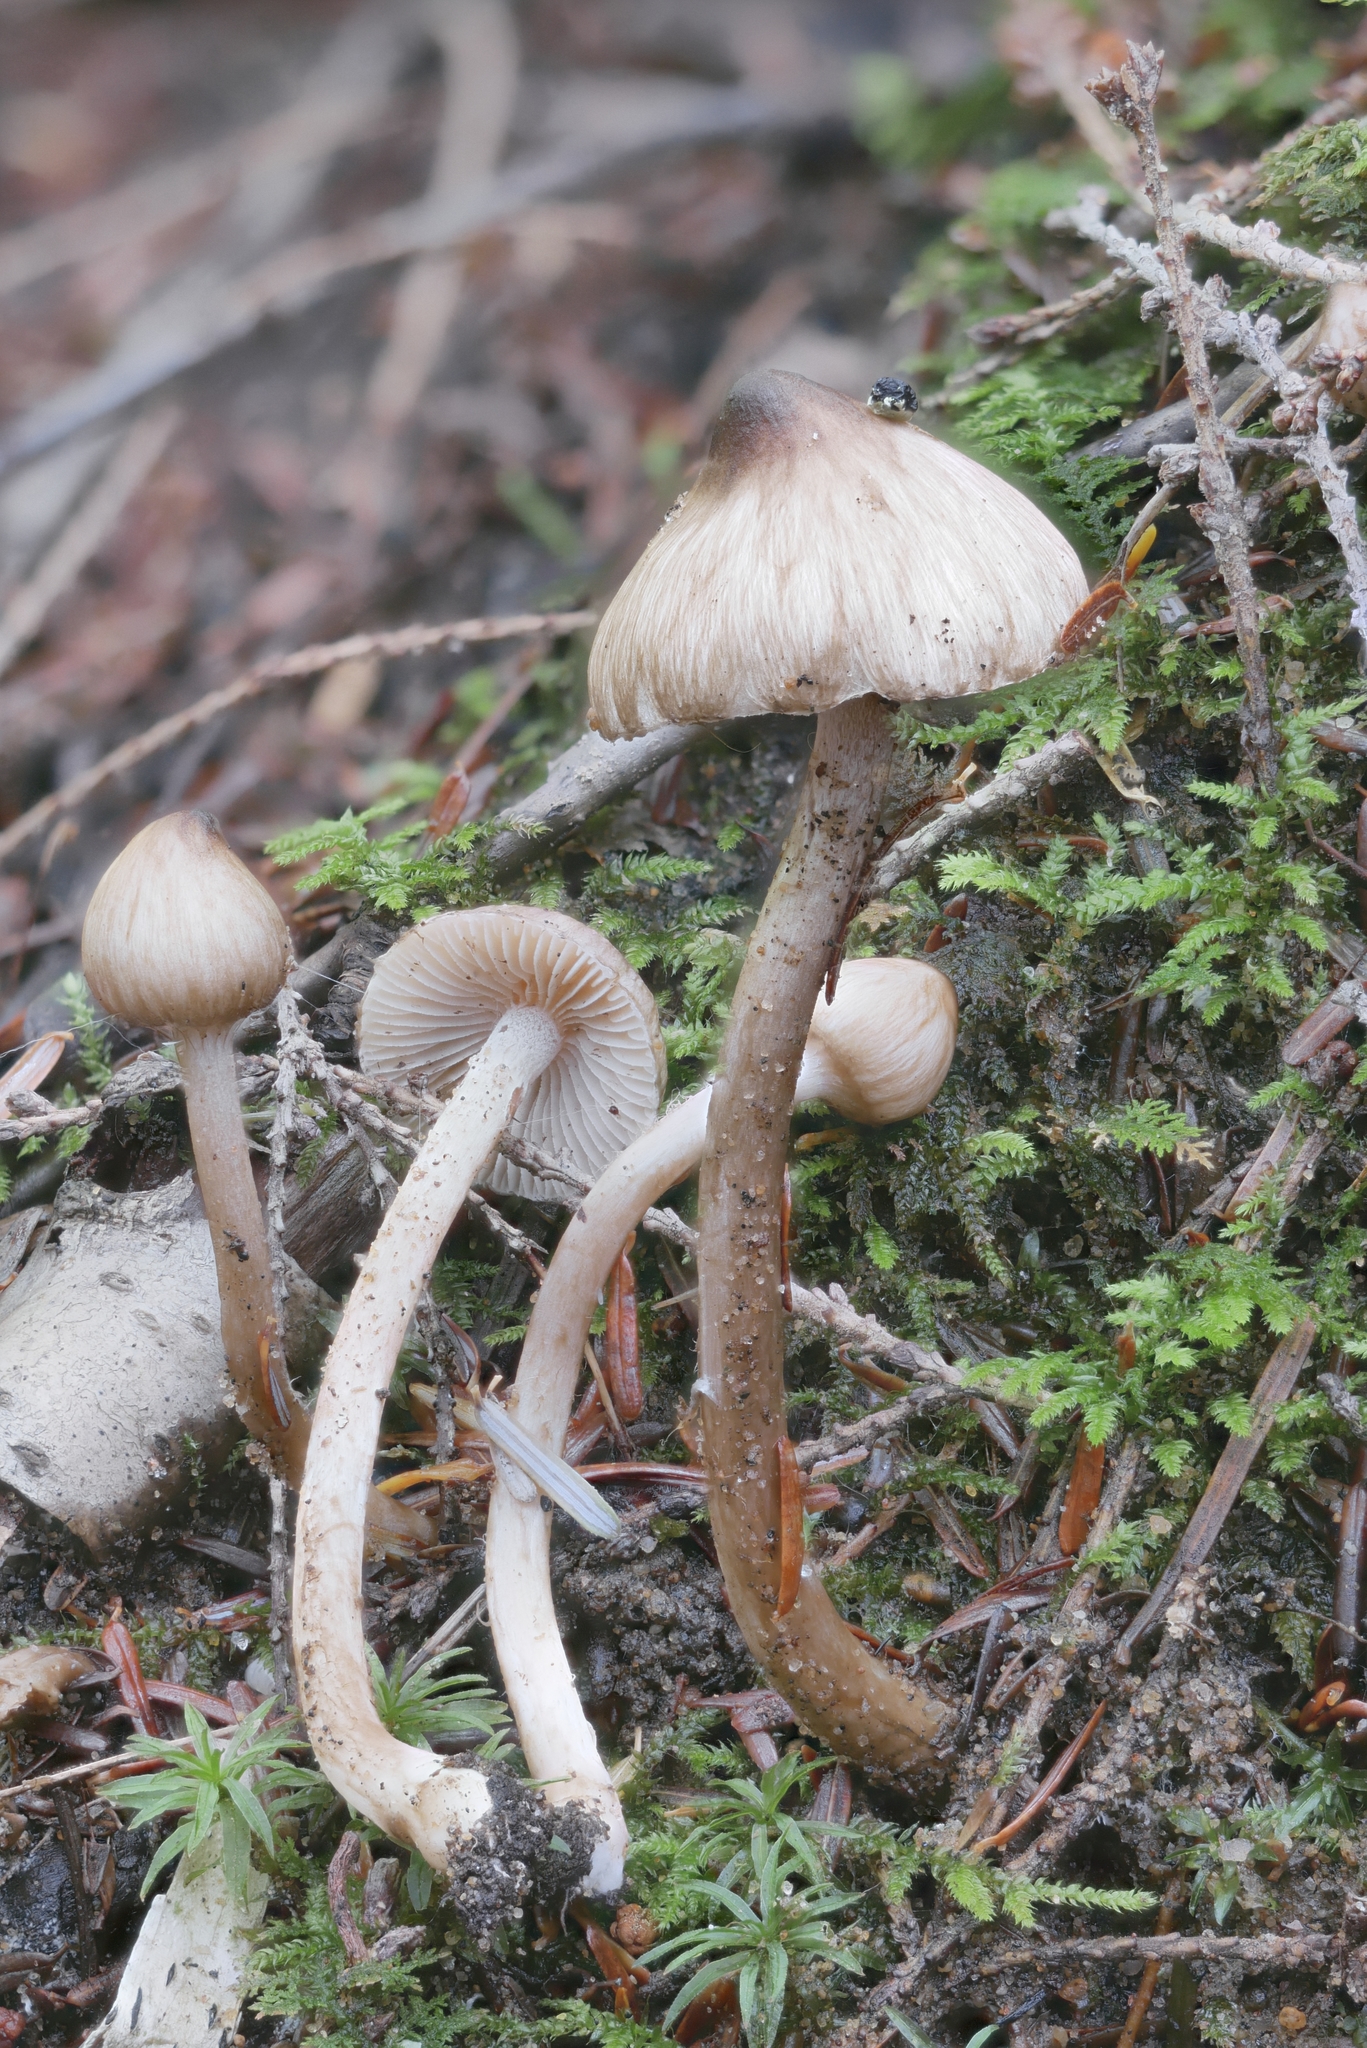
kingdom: Fungi
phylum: Basidiomycota
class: Agaricomycetes
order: Agaricales
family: Inocybaceae
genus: Inocybe
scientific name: Inocybe fuscodisca
